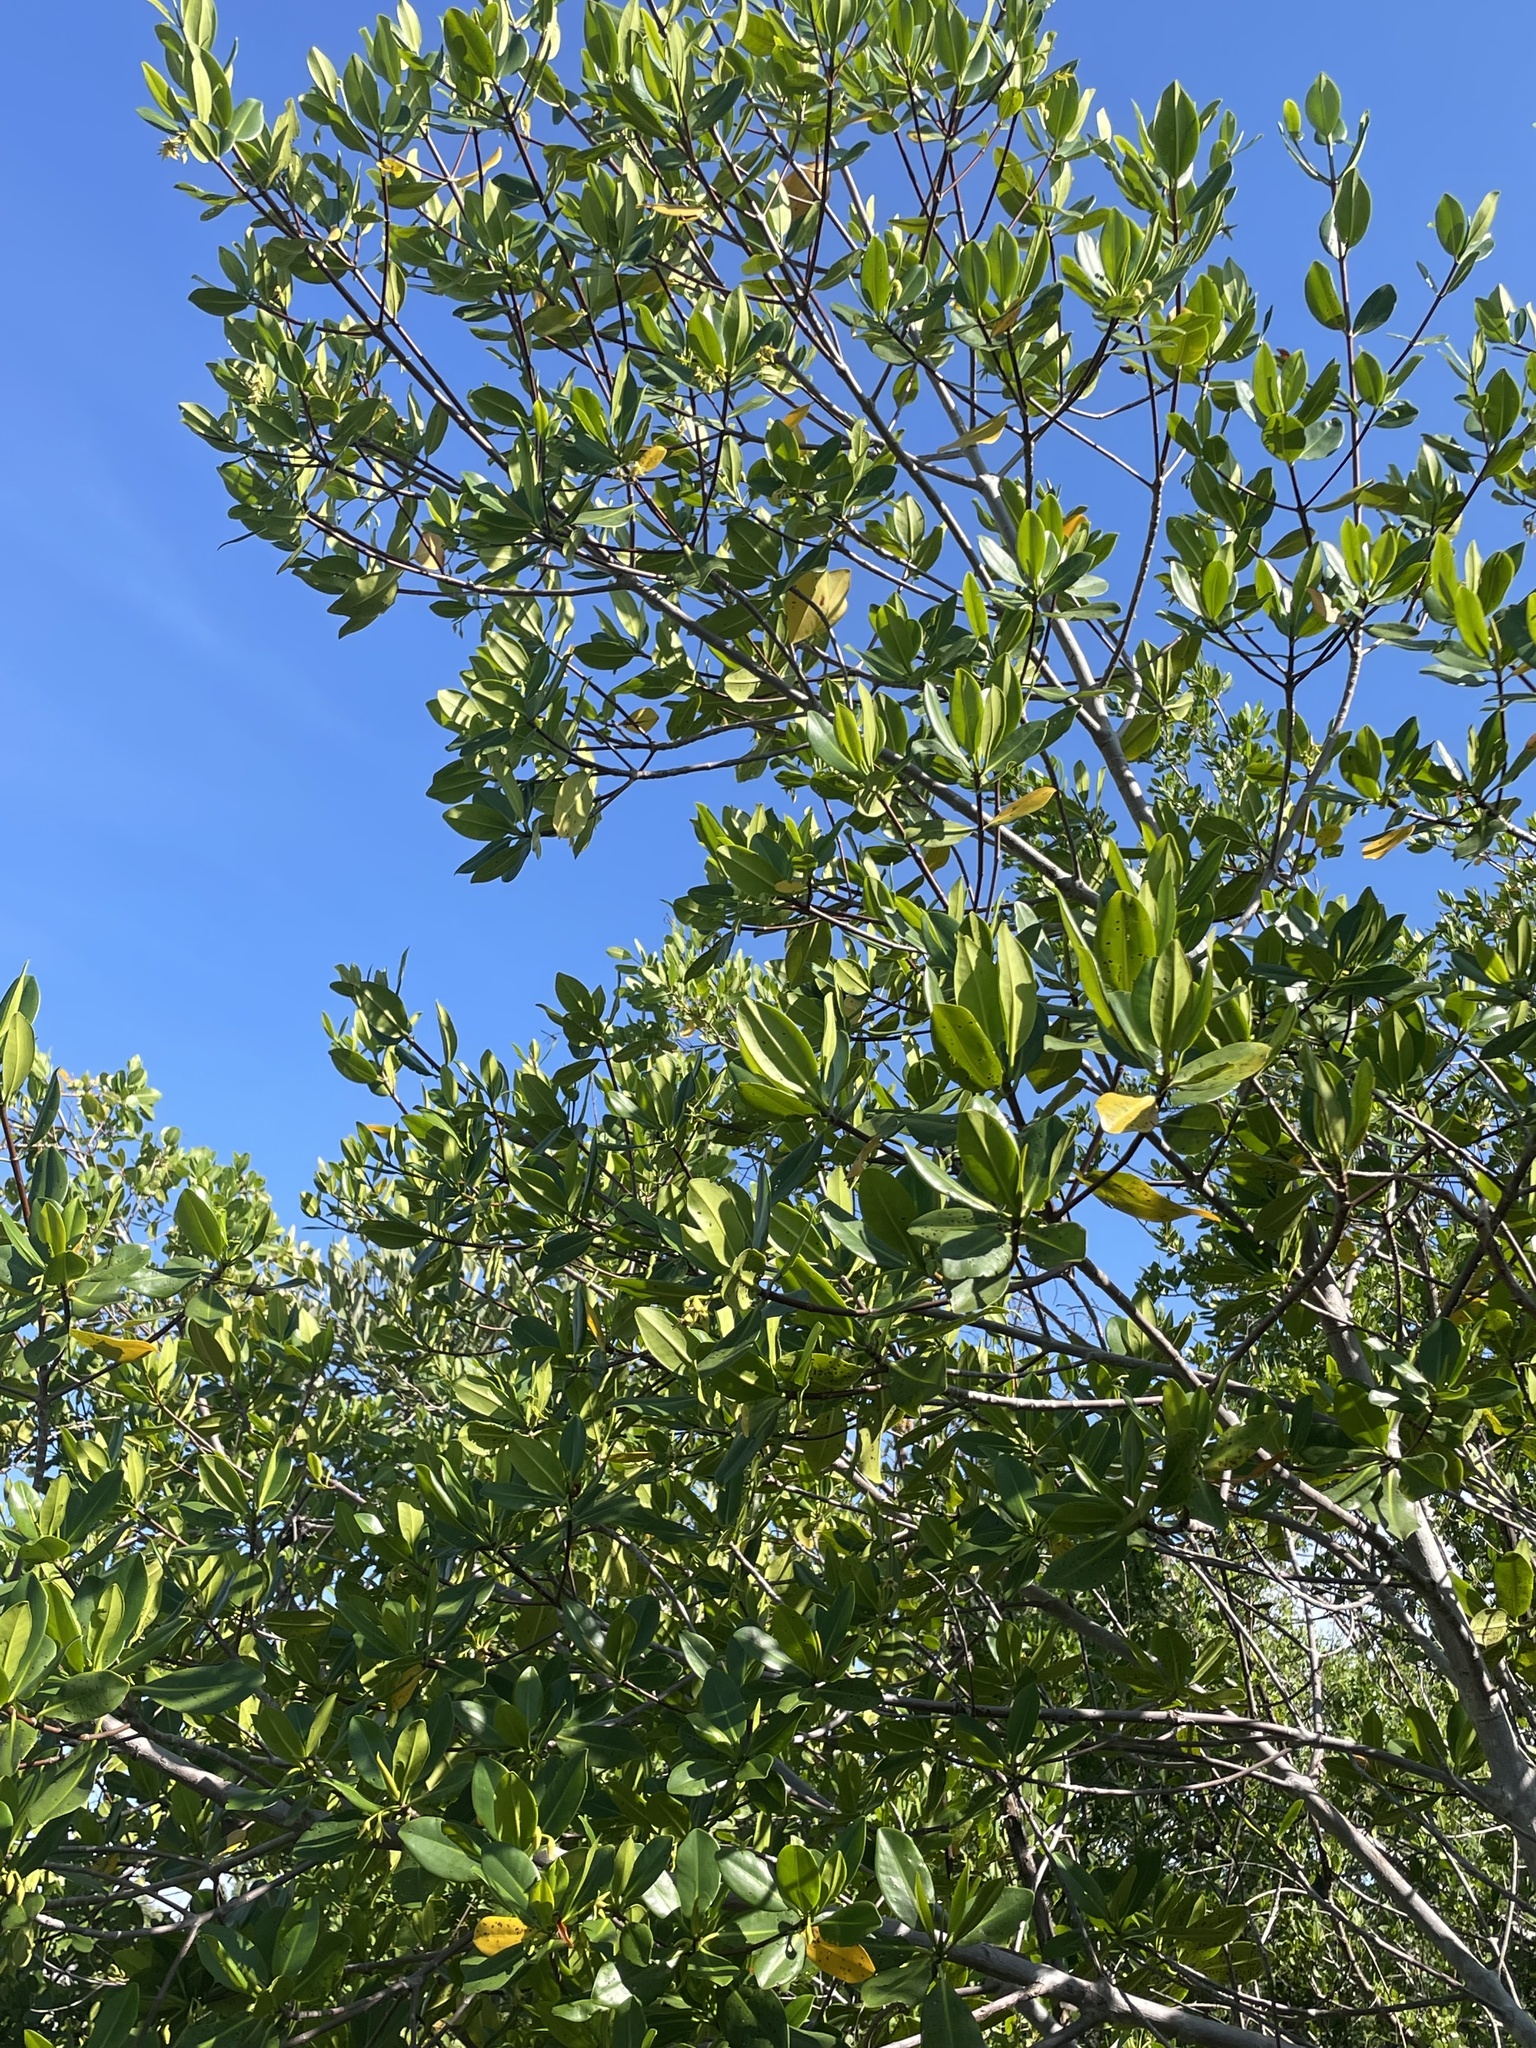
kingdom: Plantae
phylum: Tracheophyta
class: Magnoliopsida
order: Malpighiales
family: Rhizophoraceae
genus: Rhizophora
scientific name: Rhizophora mangle
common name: Red mangrove
